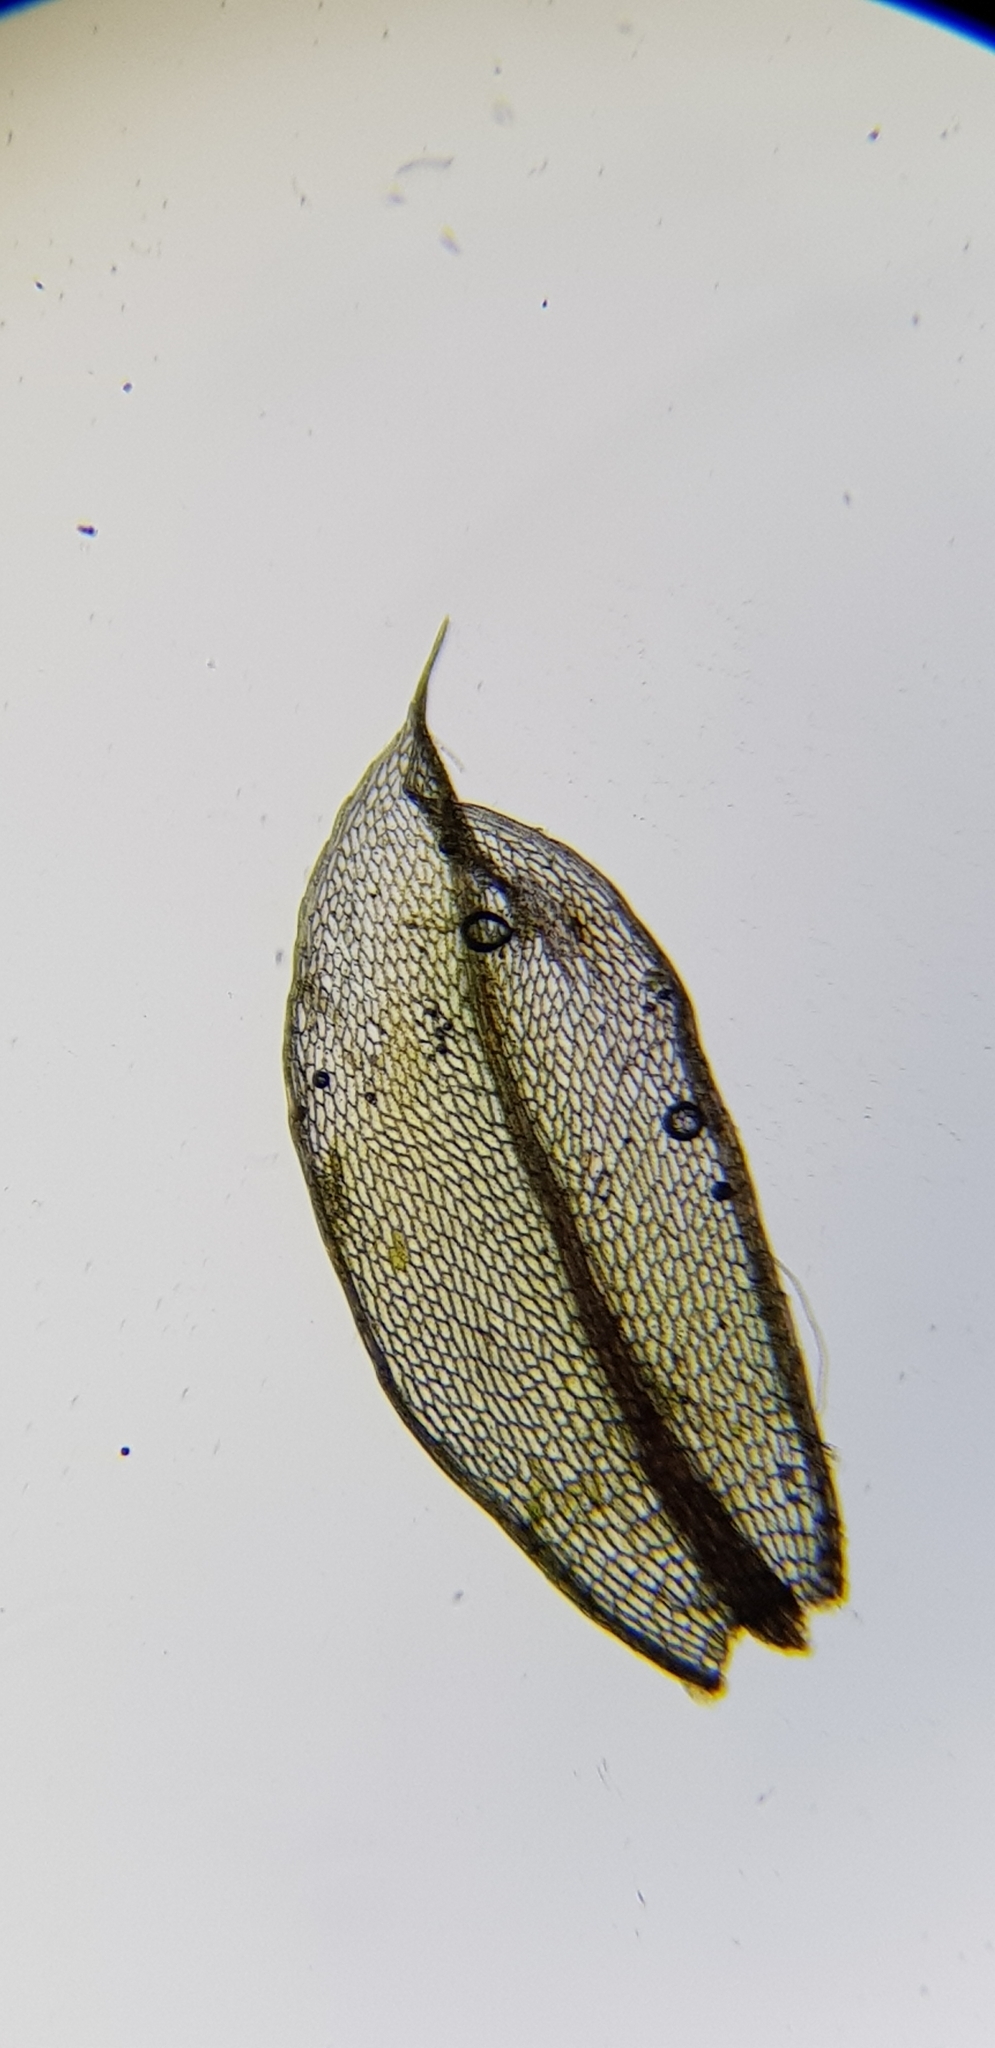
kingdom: Plantae
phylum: Bryophyta
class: Bryopsida
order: Bryales
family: Bryaceae
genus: Rosulabryum
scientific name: Rosulabryum capillare
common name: Capillary thread-moss
